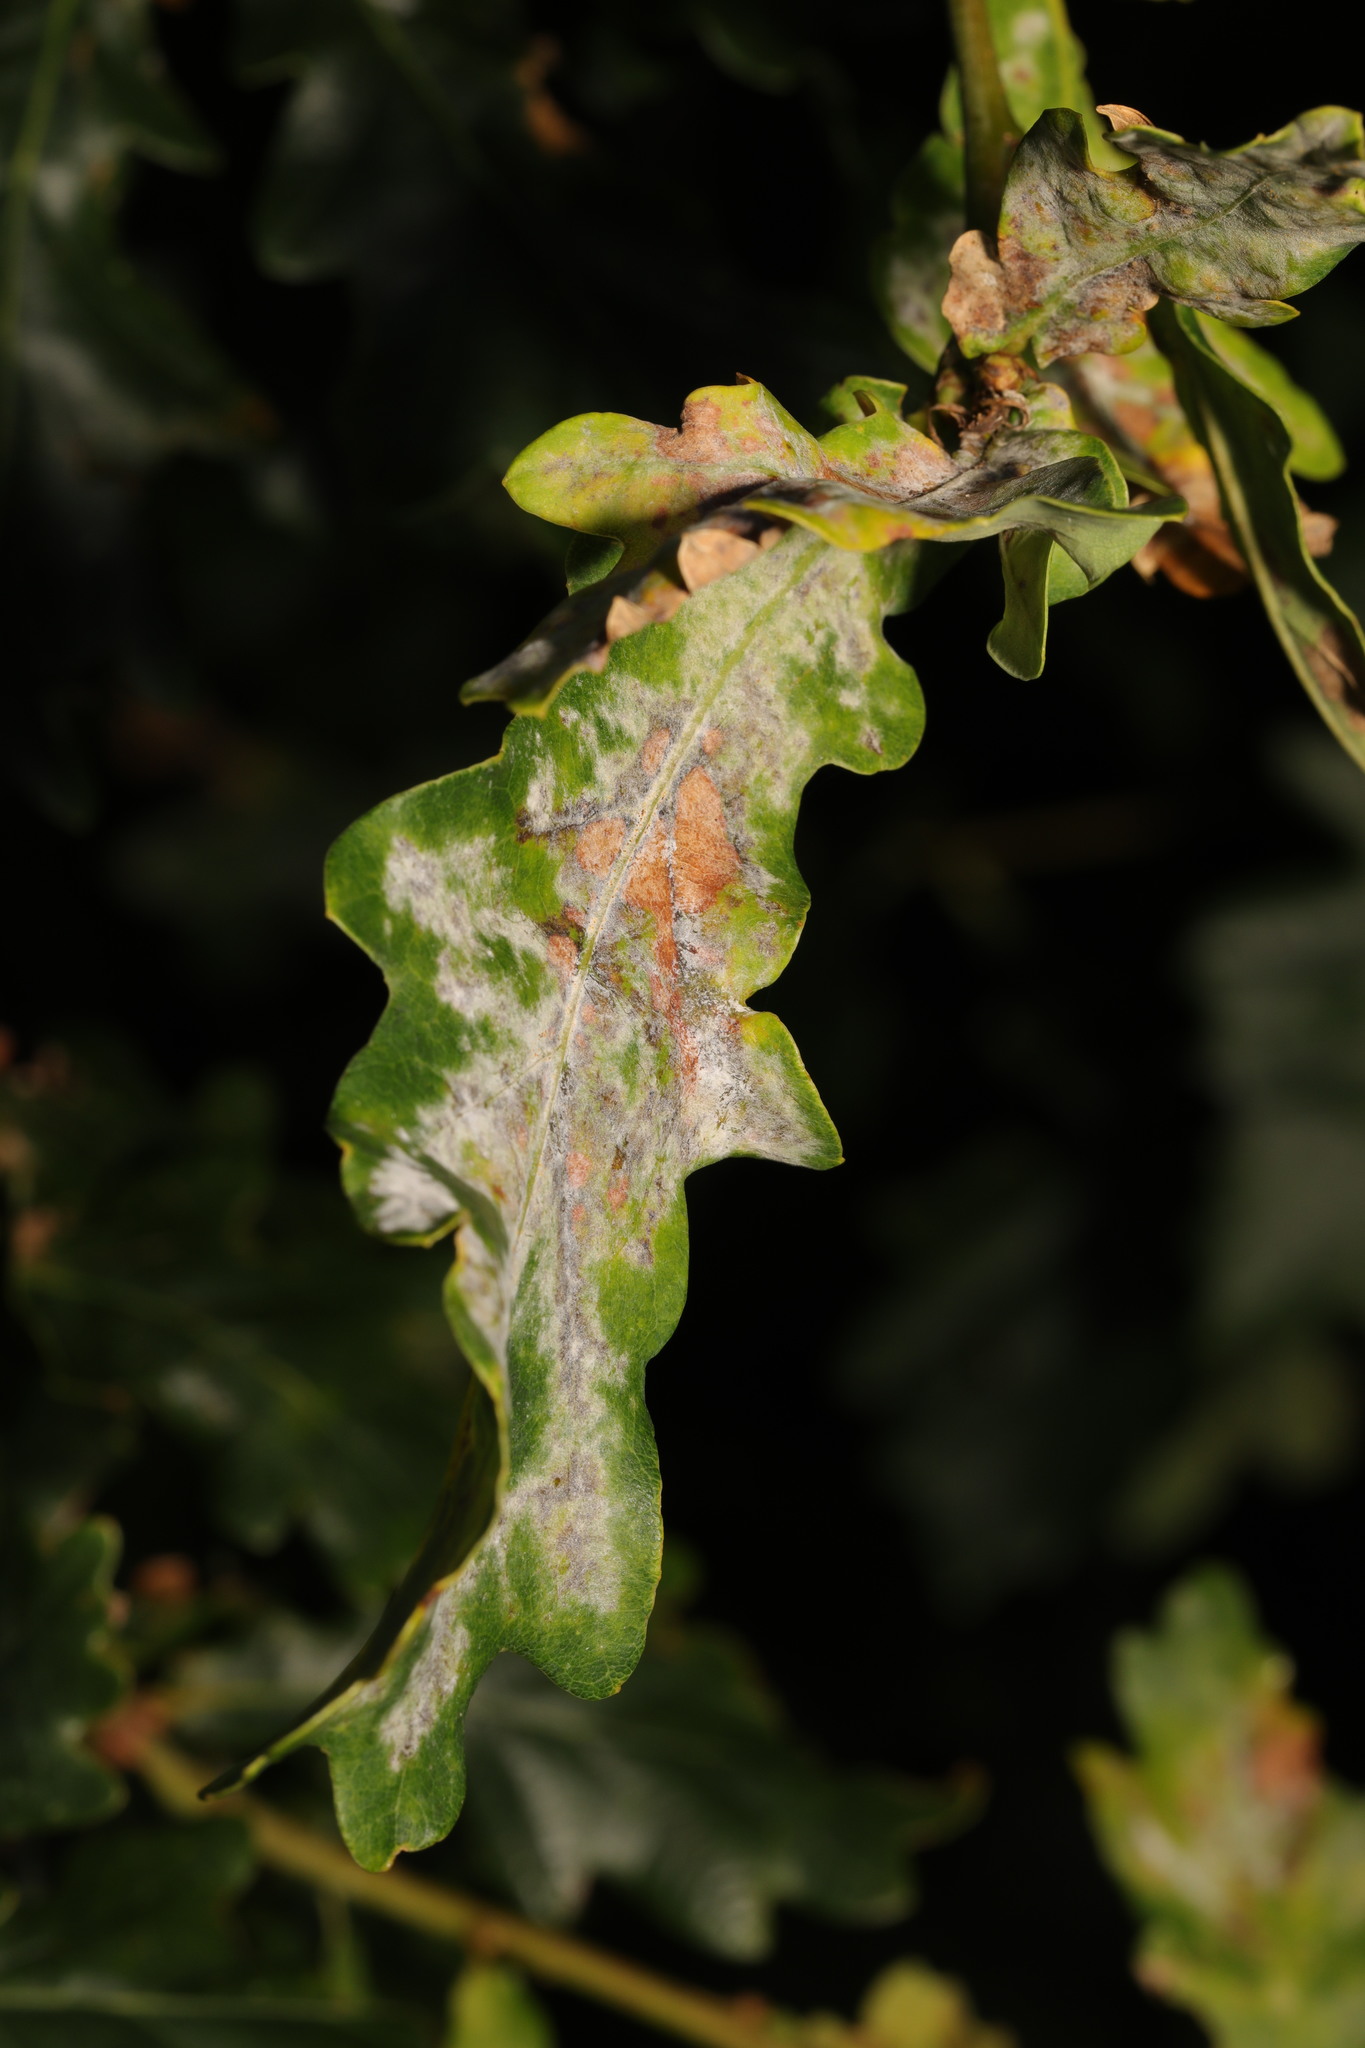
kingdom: Fungi
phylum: Ascomycota
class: Leotiomycetes
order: Helotiales
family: Erysiphaceae
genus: Erysiphe
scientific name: Erysiphe alphitoides
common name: Oak mildew
